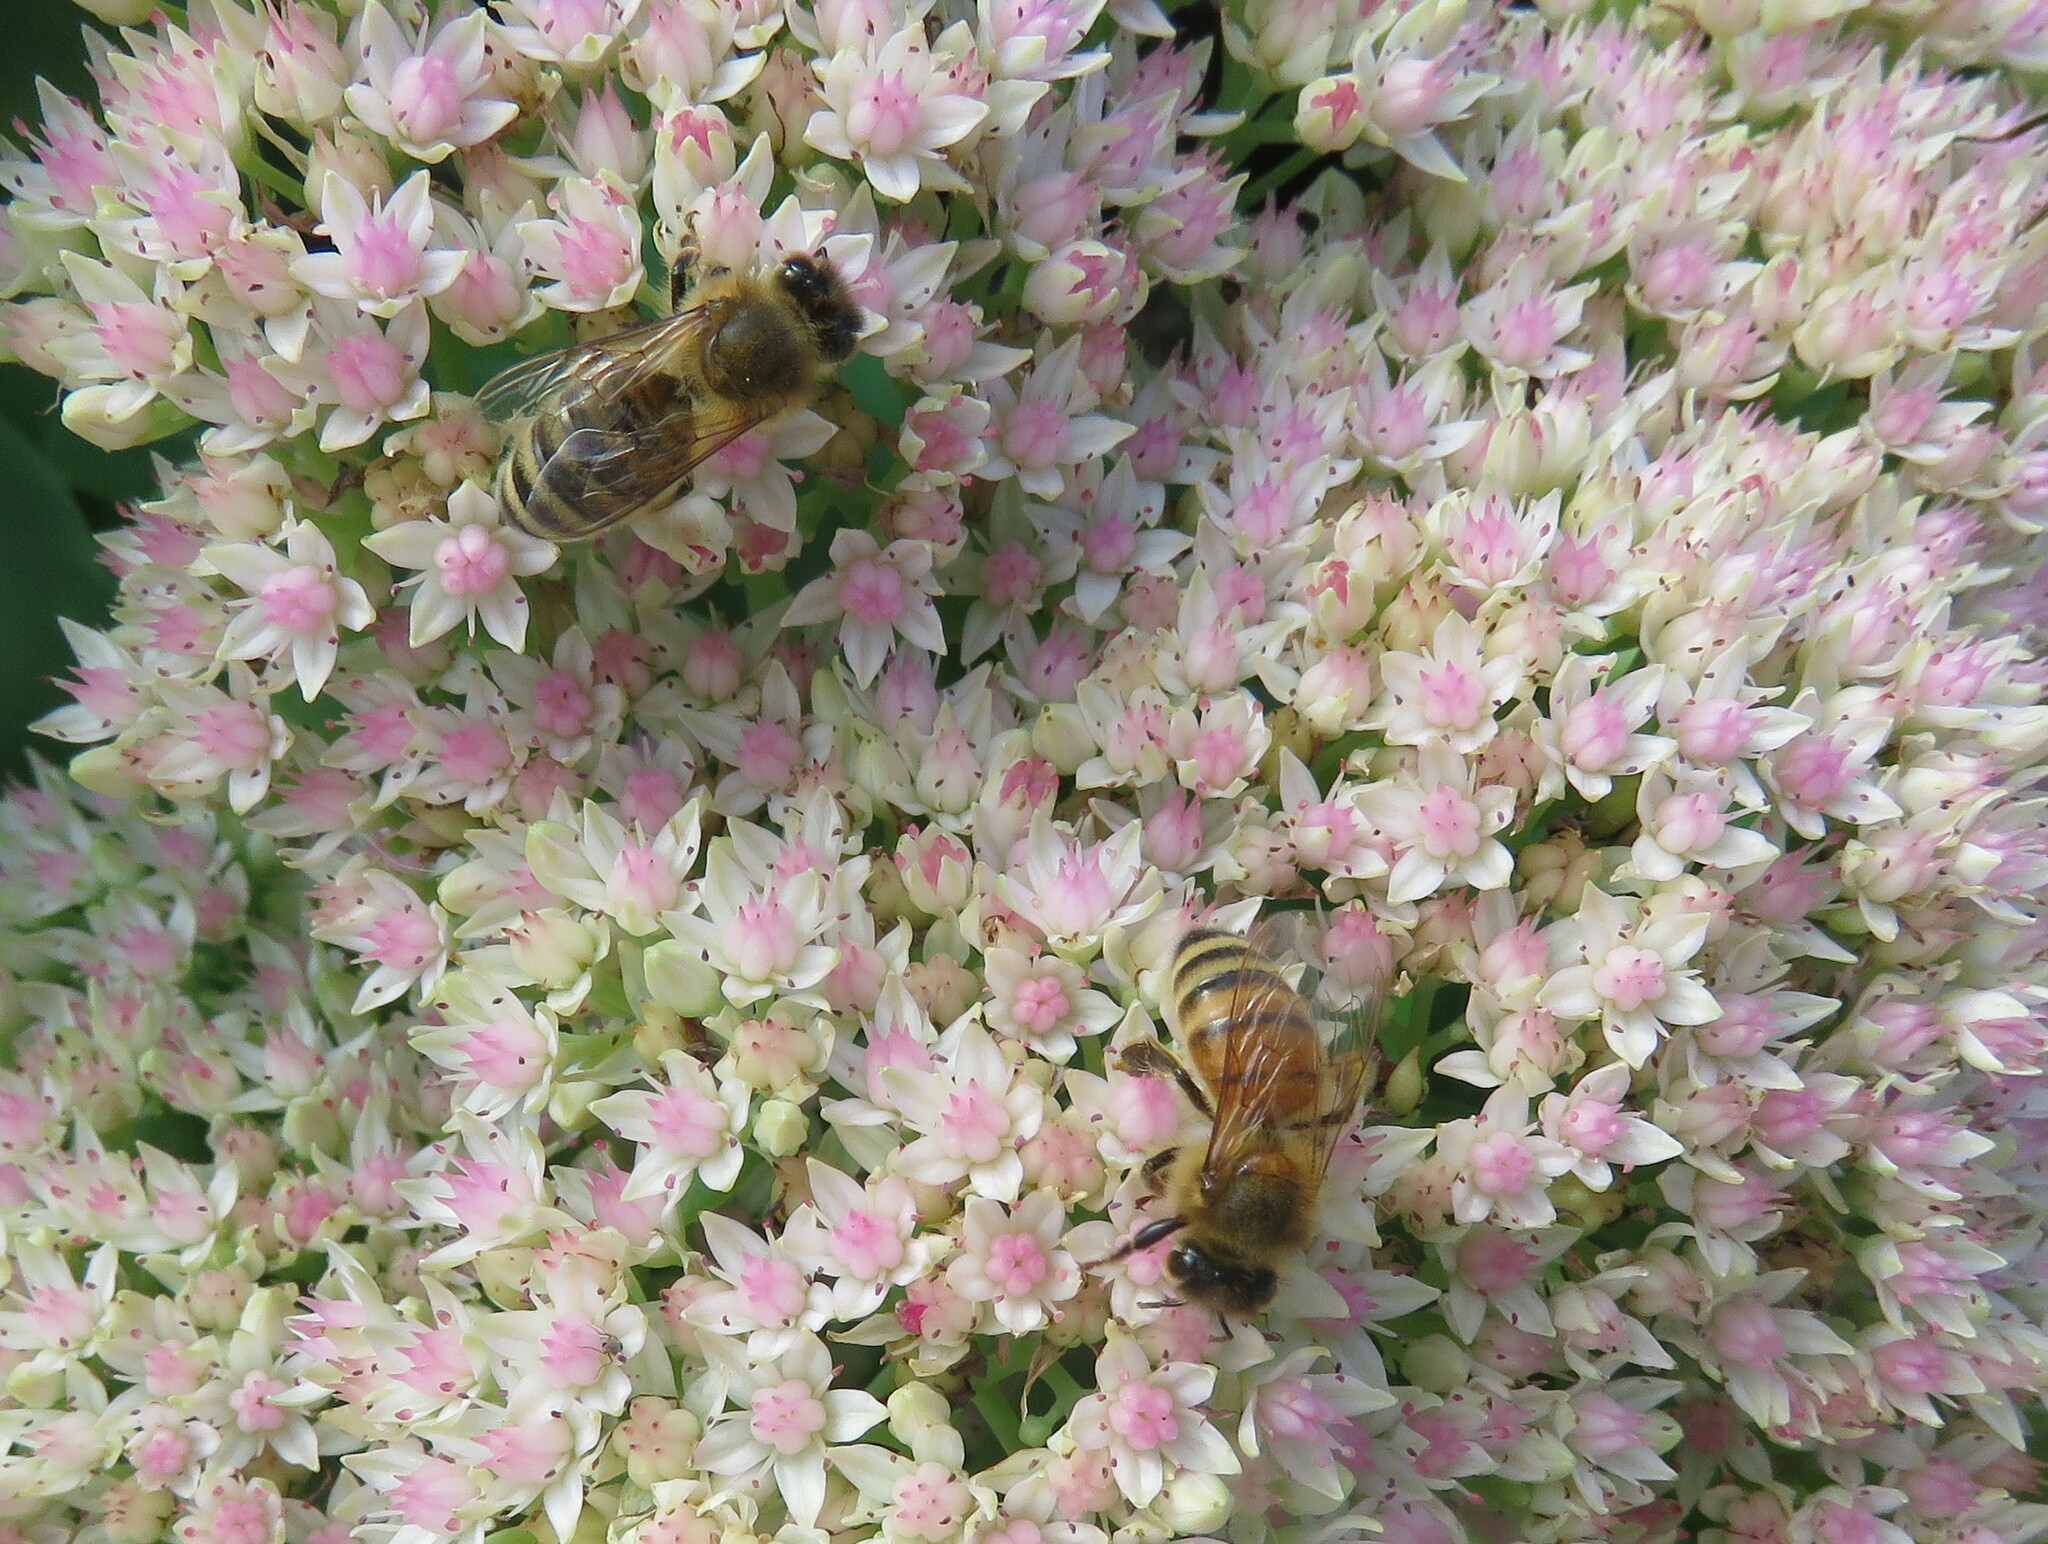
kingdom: Animalia
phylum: Arthropoda
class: Insecta
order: Hymenoptera
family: Apidae
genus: Apis
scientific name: Apis mellifera
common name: Honey bee
